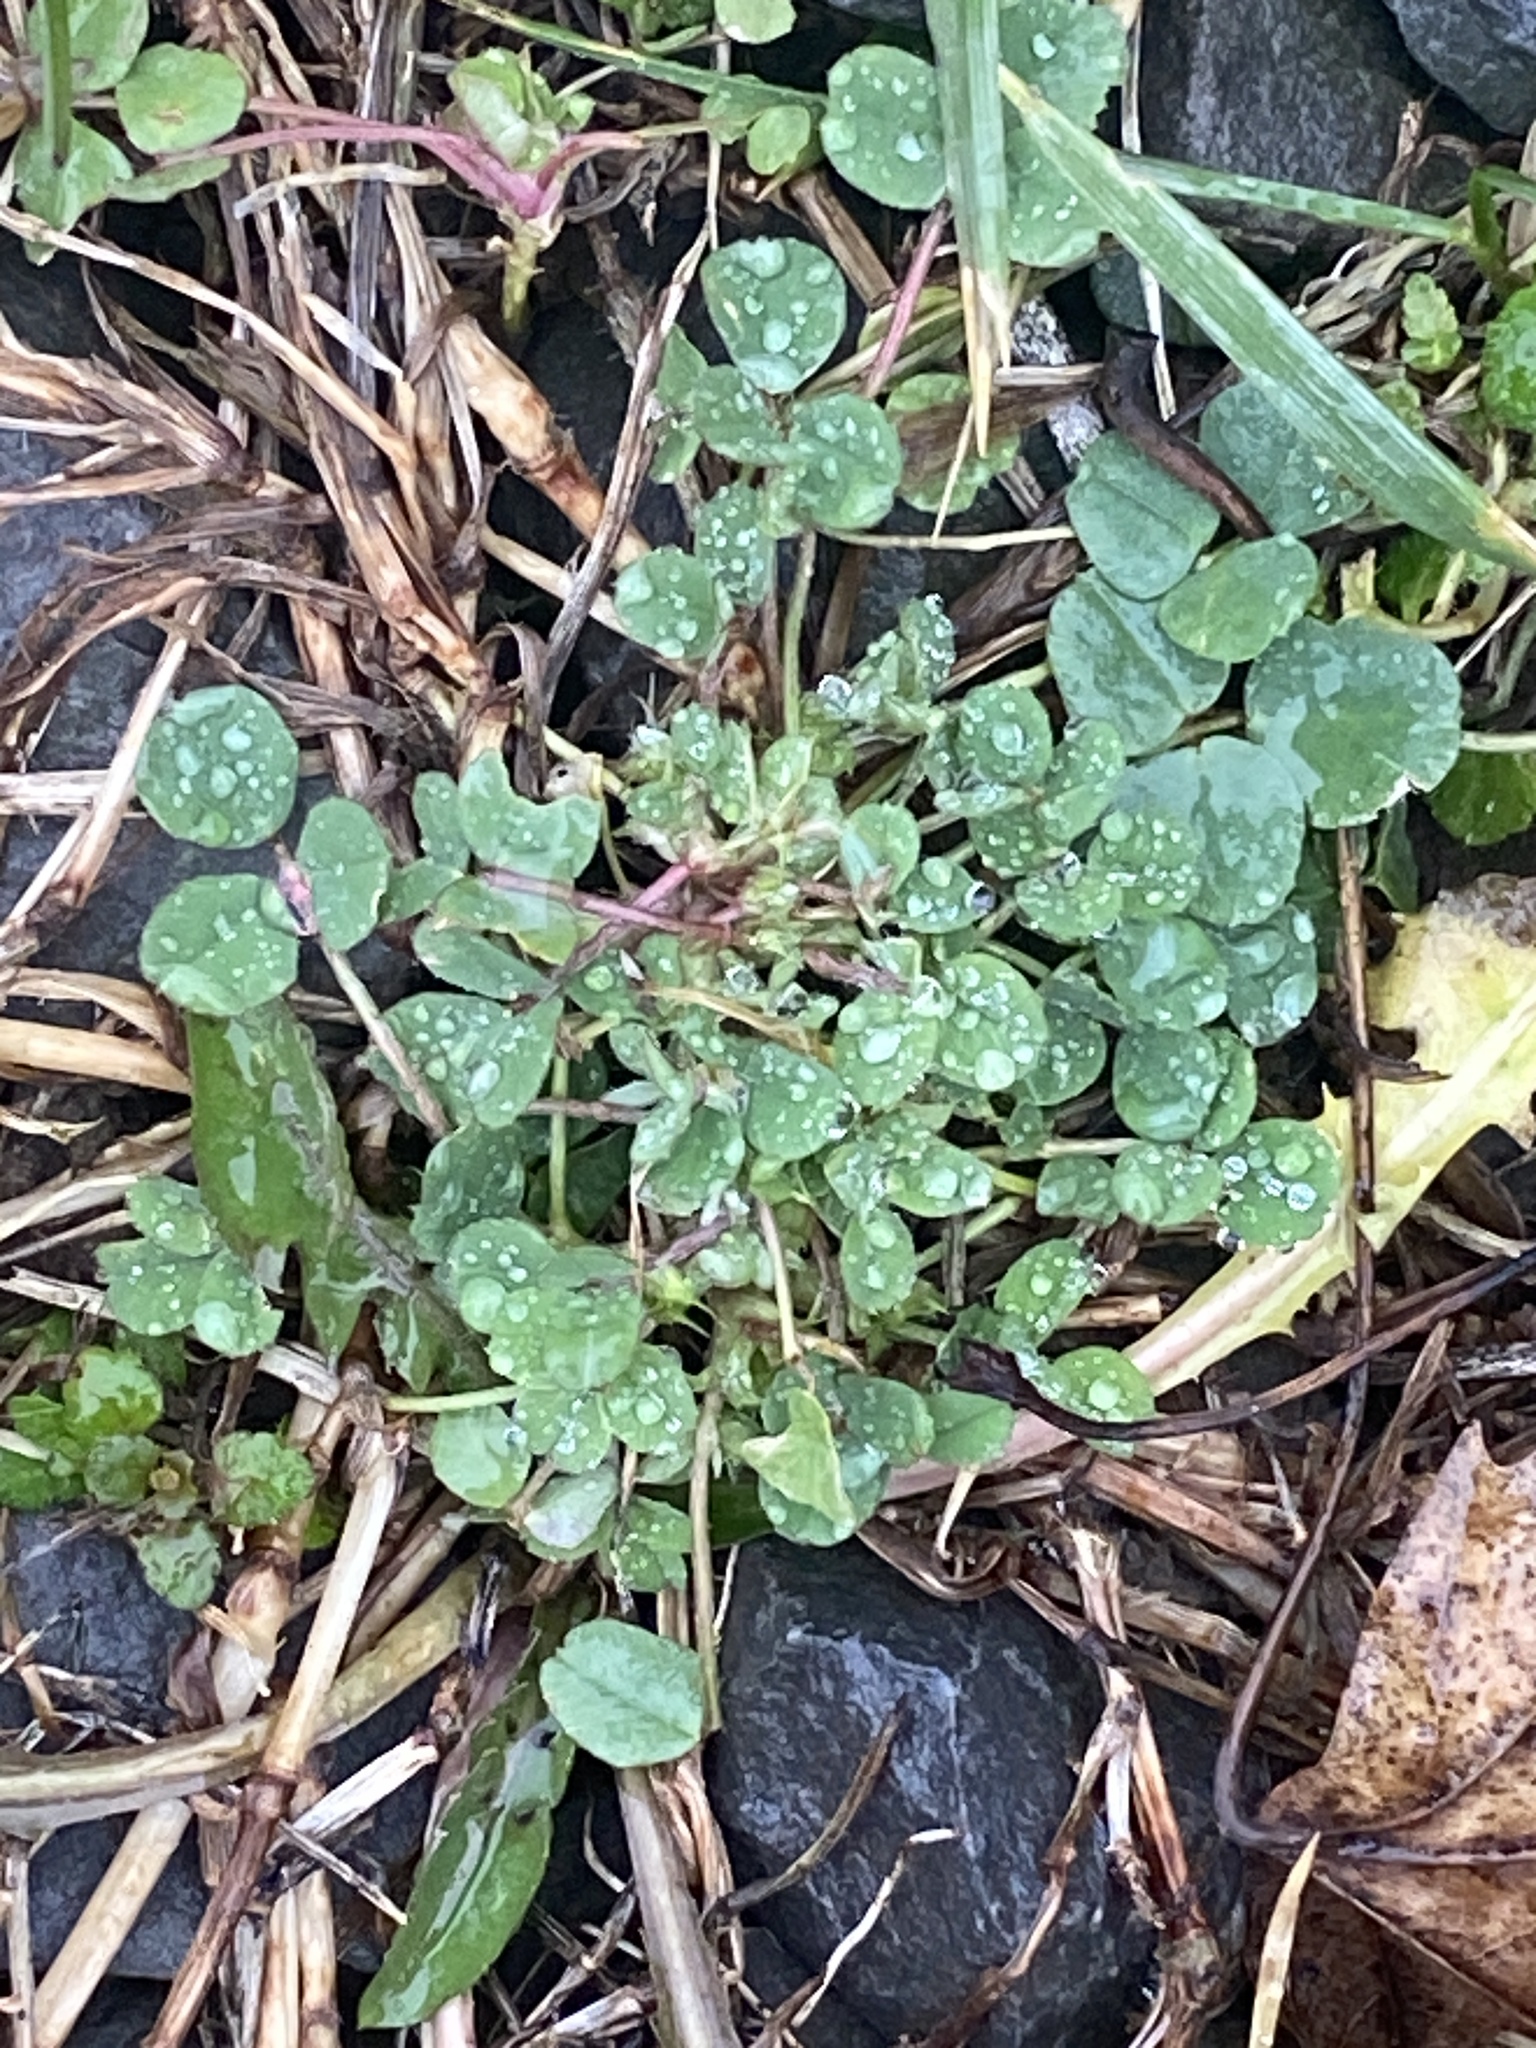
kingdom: Plantae
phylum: Tracheophyta
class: Magnoliopsida
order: Fabales
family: Fabaceae
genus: Medicago
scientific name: Medicago lupulina
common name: Black medick
